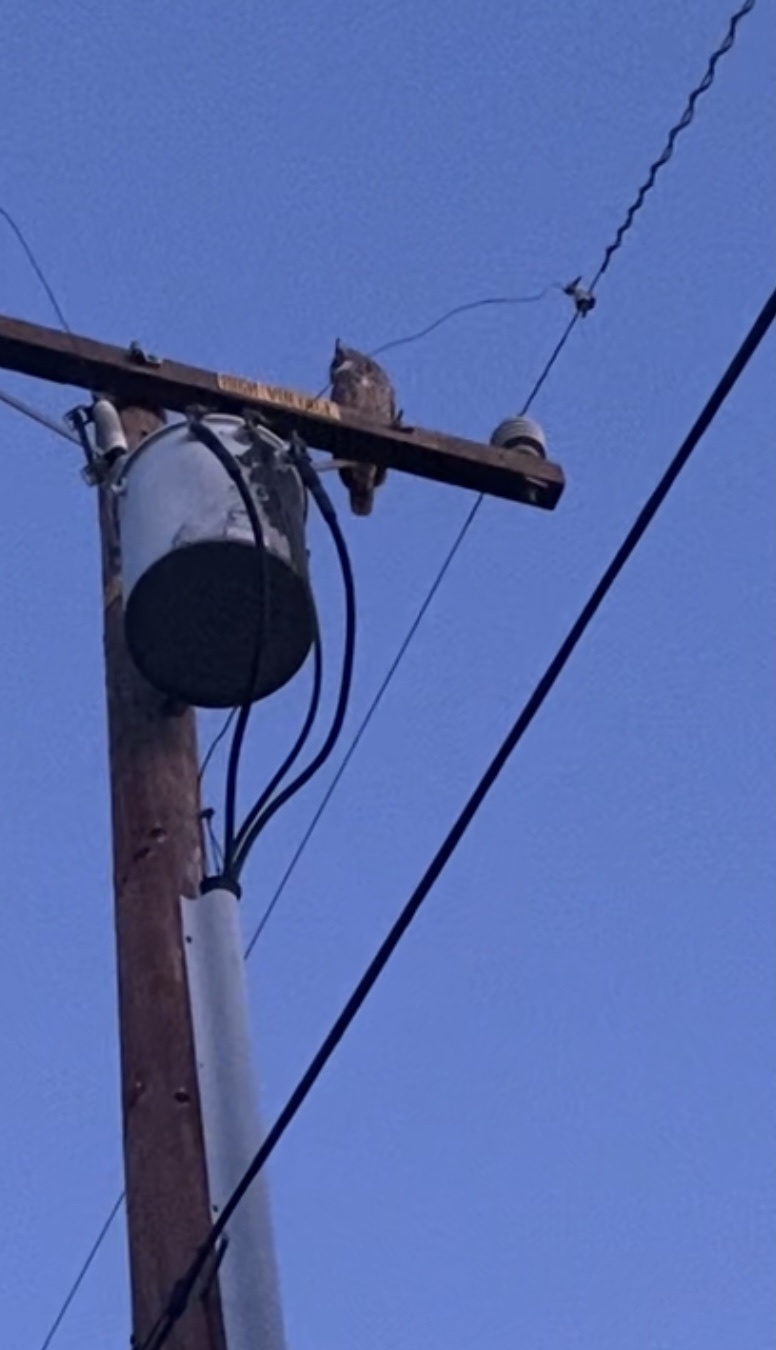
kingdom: Animalia
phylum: Chordata
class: Aves
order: Strigiformes
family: Strigidae
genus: Bubo
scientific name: Bubo virginianus
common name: Great horned owl
